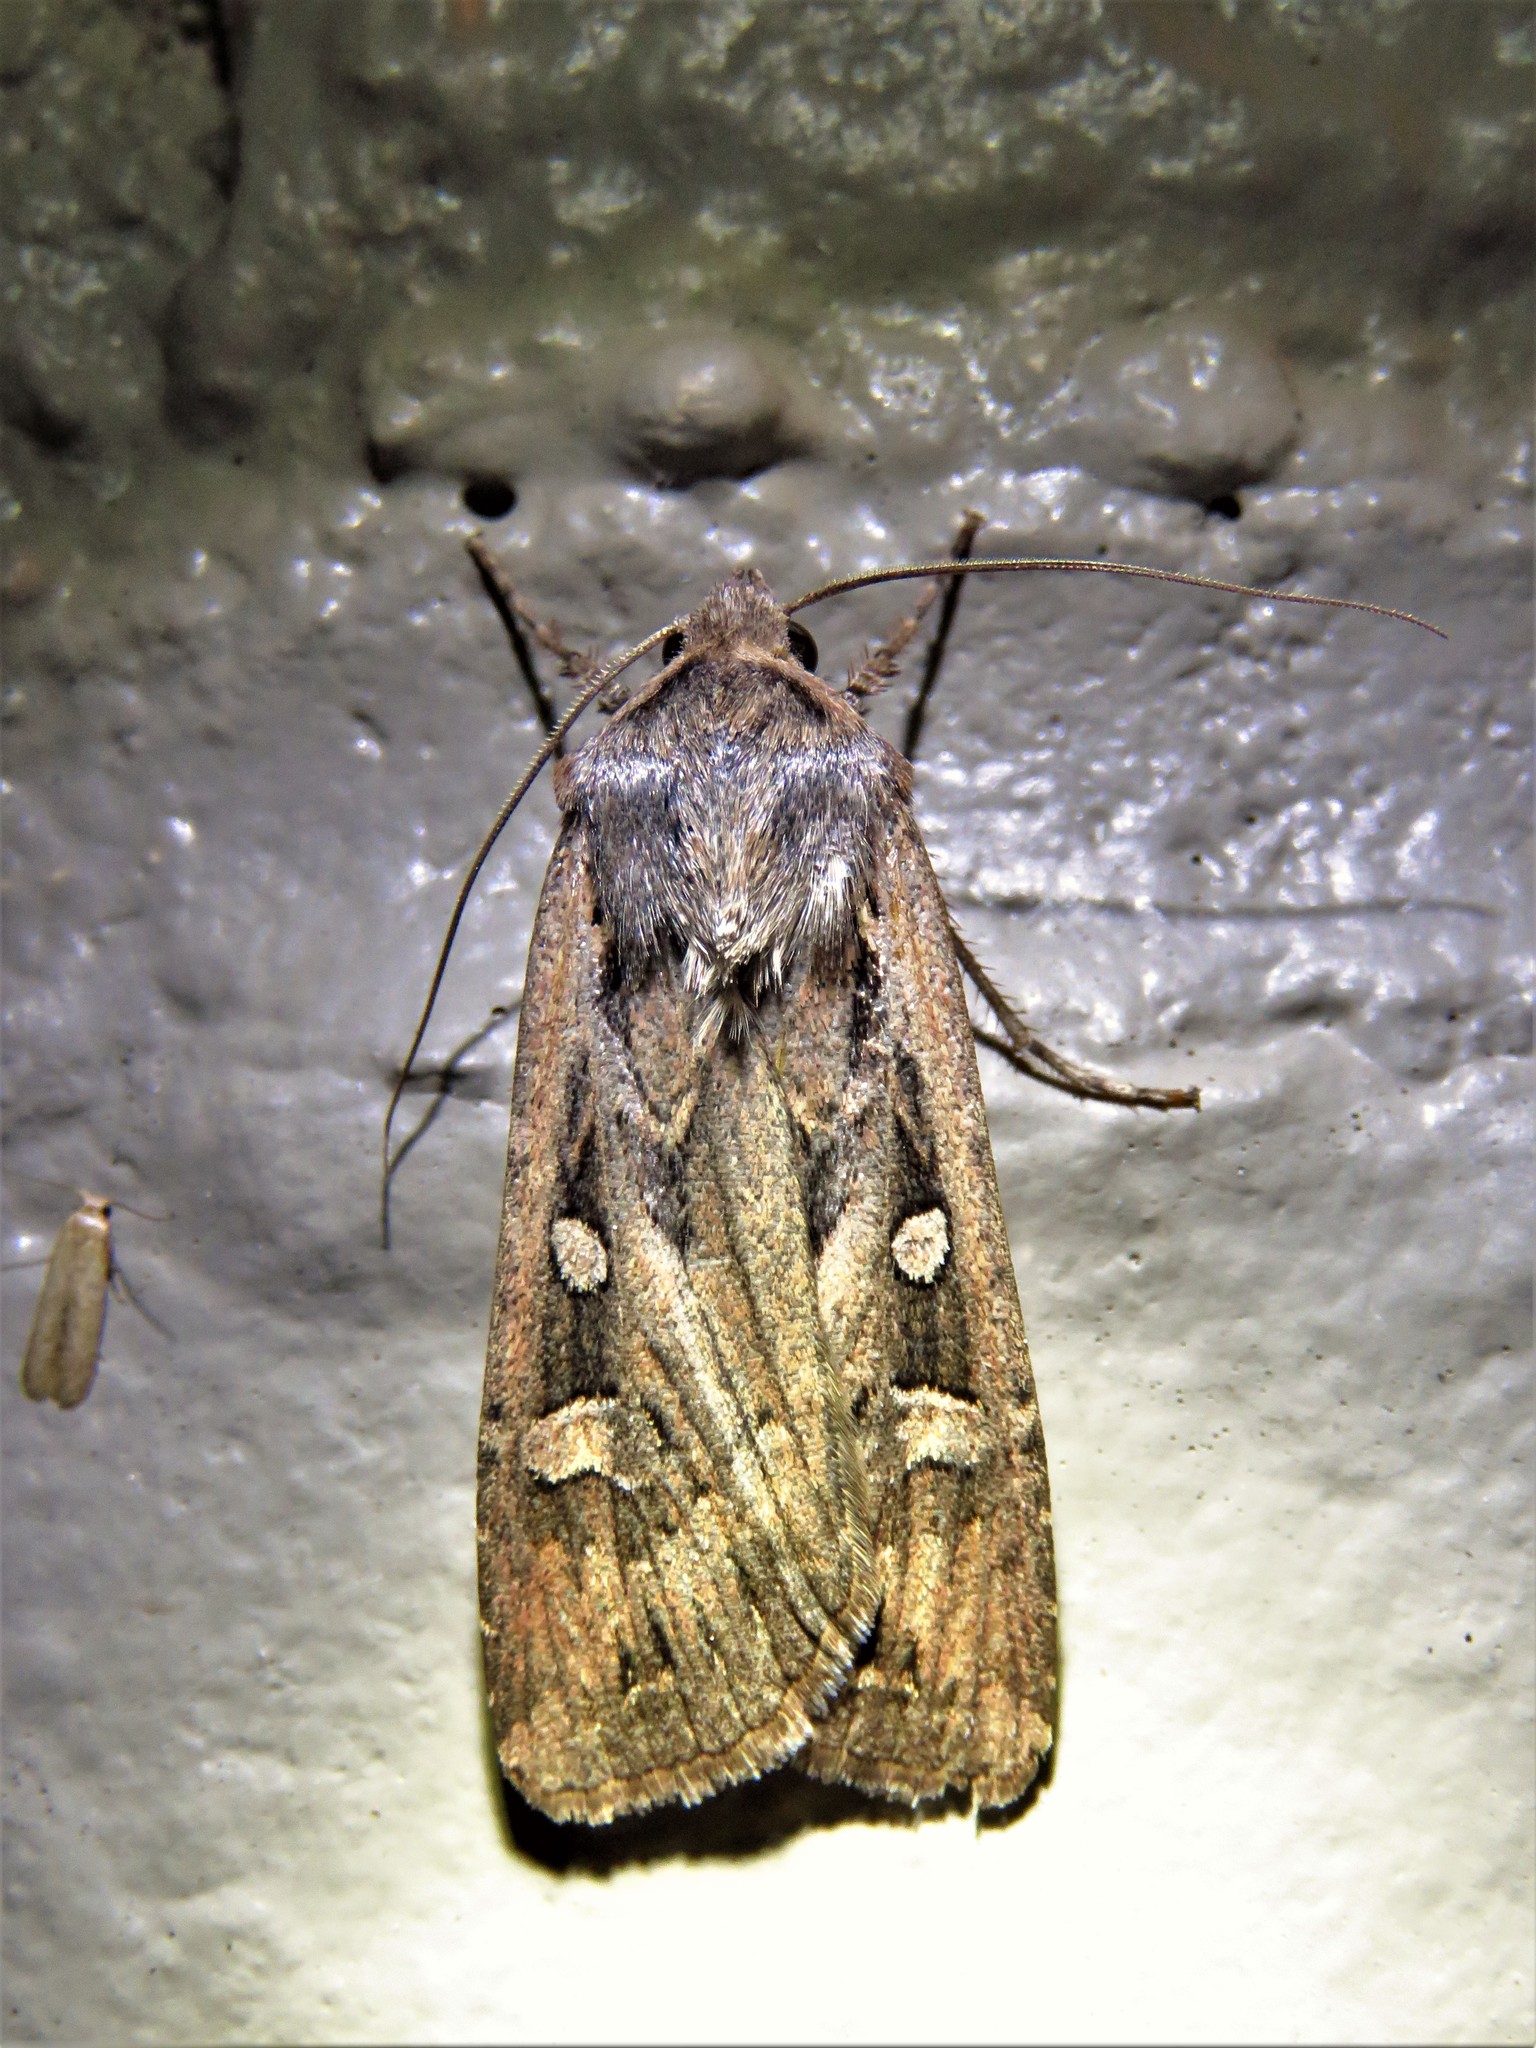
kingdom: Animalia
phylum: Arthropoda
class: Insecta
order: Lepidoptera
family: Noctuidae
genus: Euxoa
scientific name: Euxoa auxiliaris
